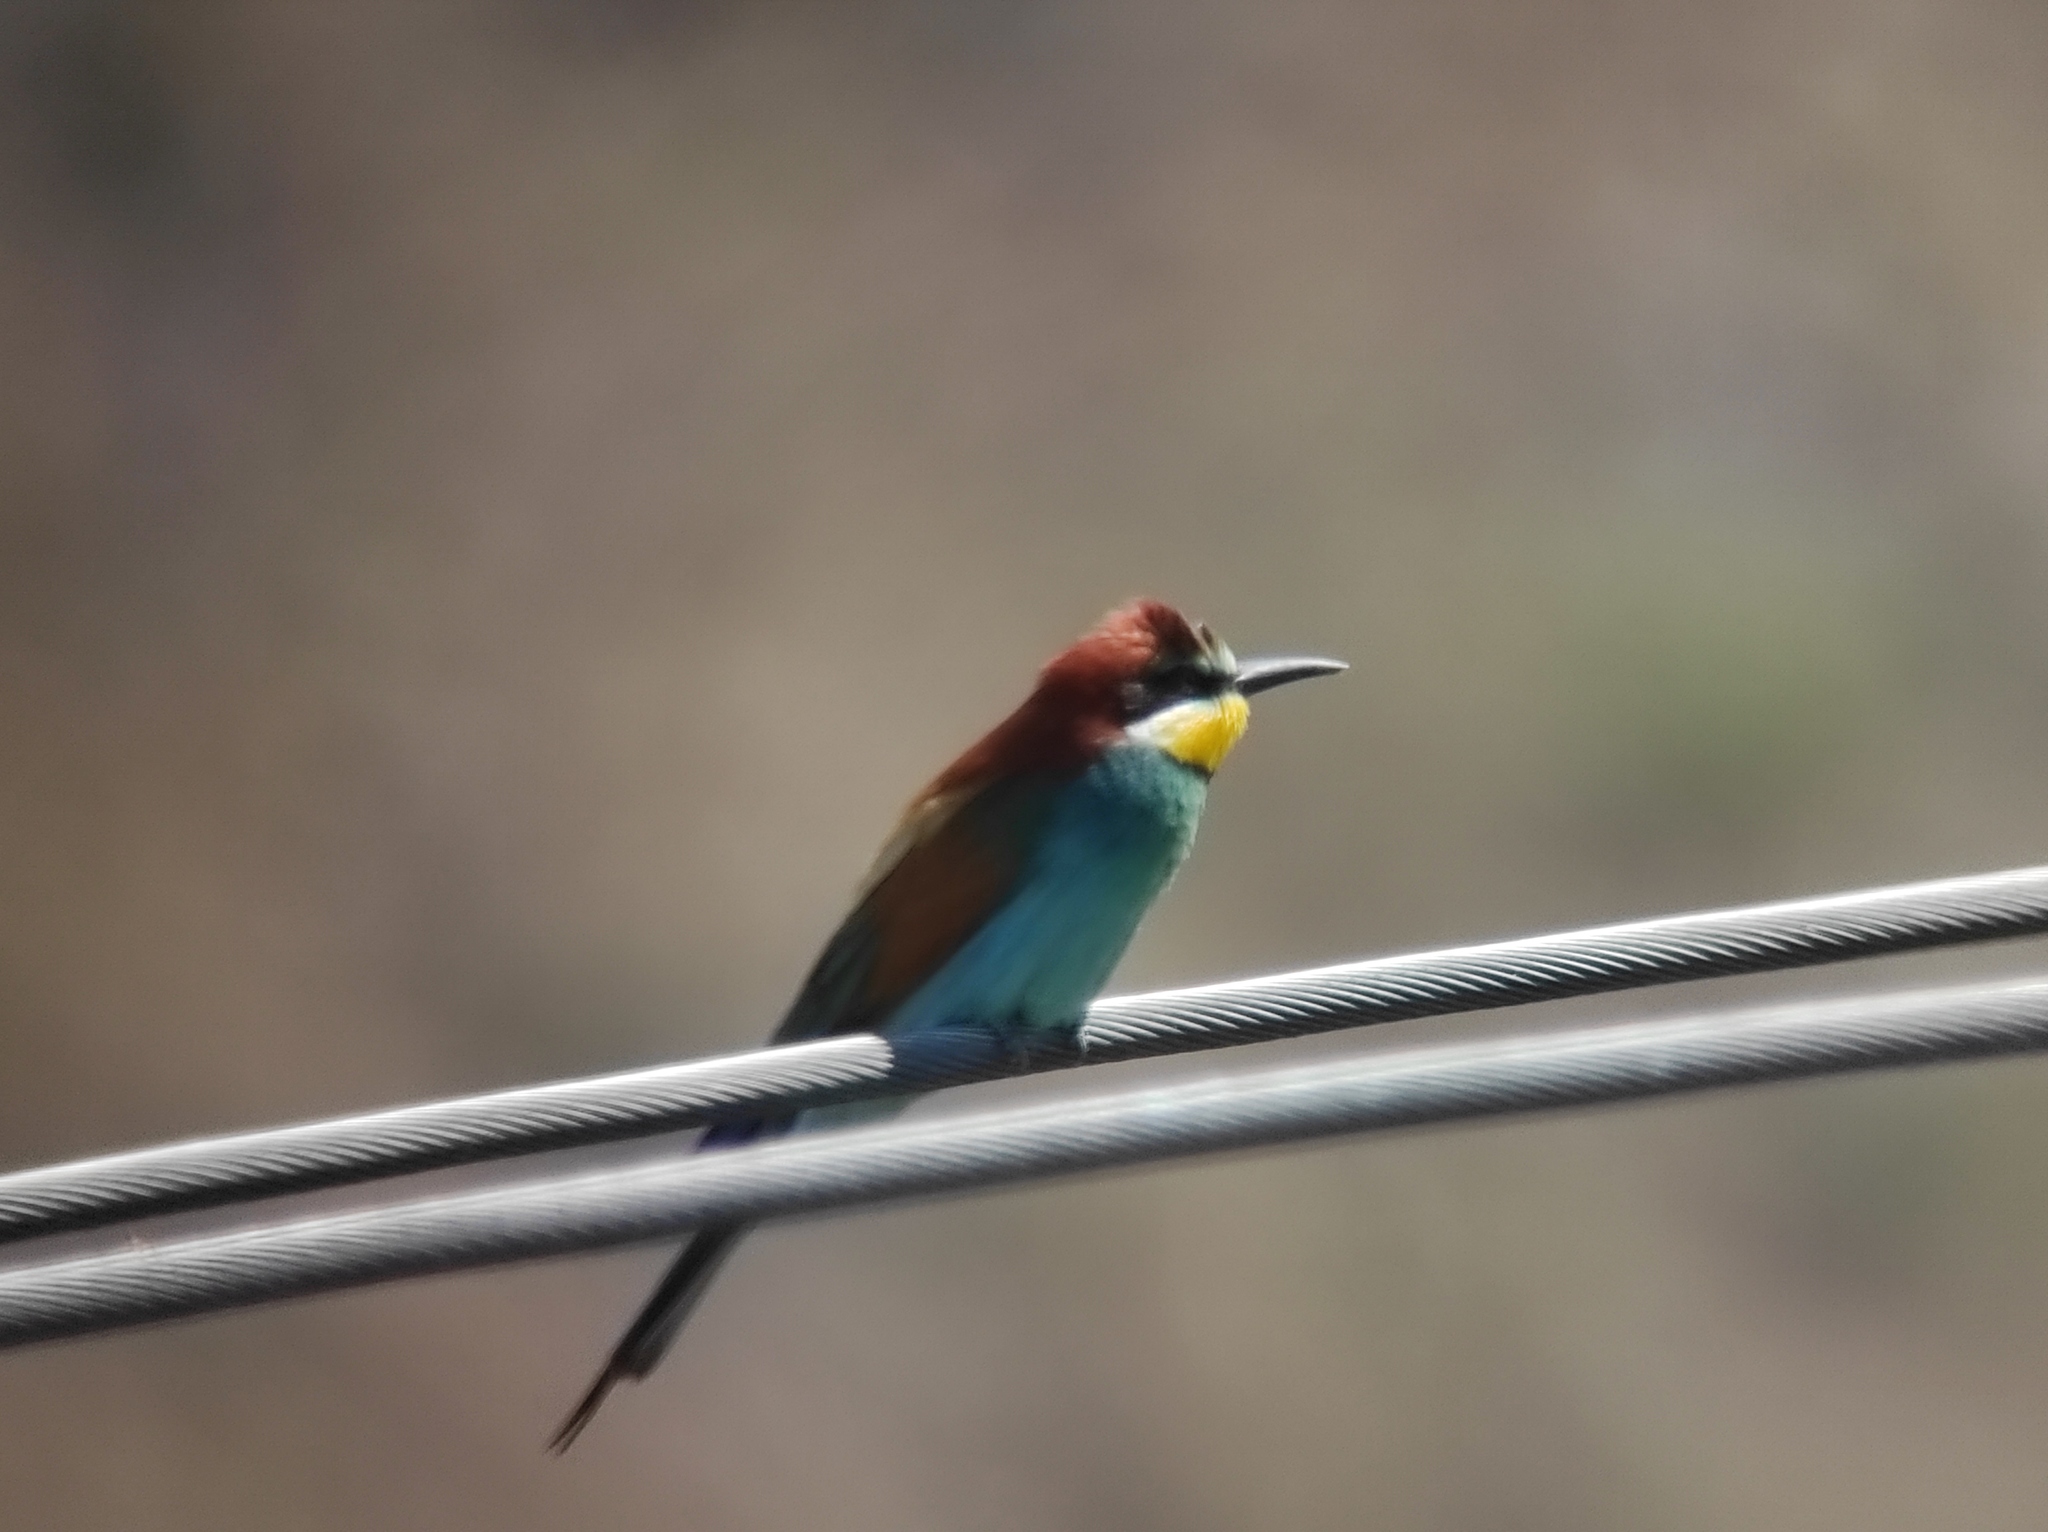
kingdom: Animalia
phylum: Chordata
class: Aves
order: Coraciiformes
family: Meropidae
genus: Merops
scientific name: Merops apiaster
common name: European bee-eater
